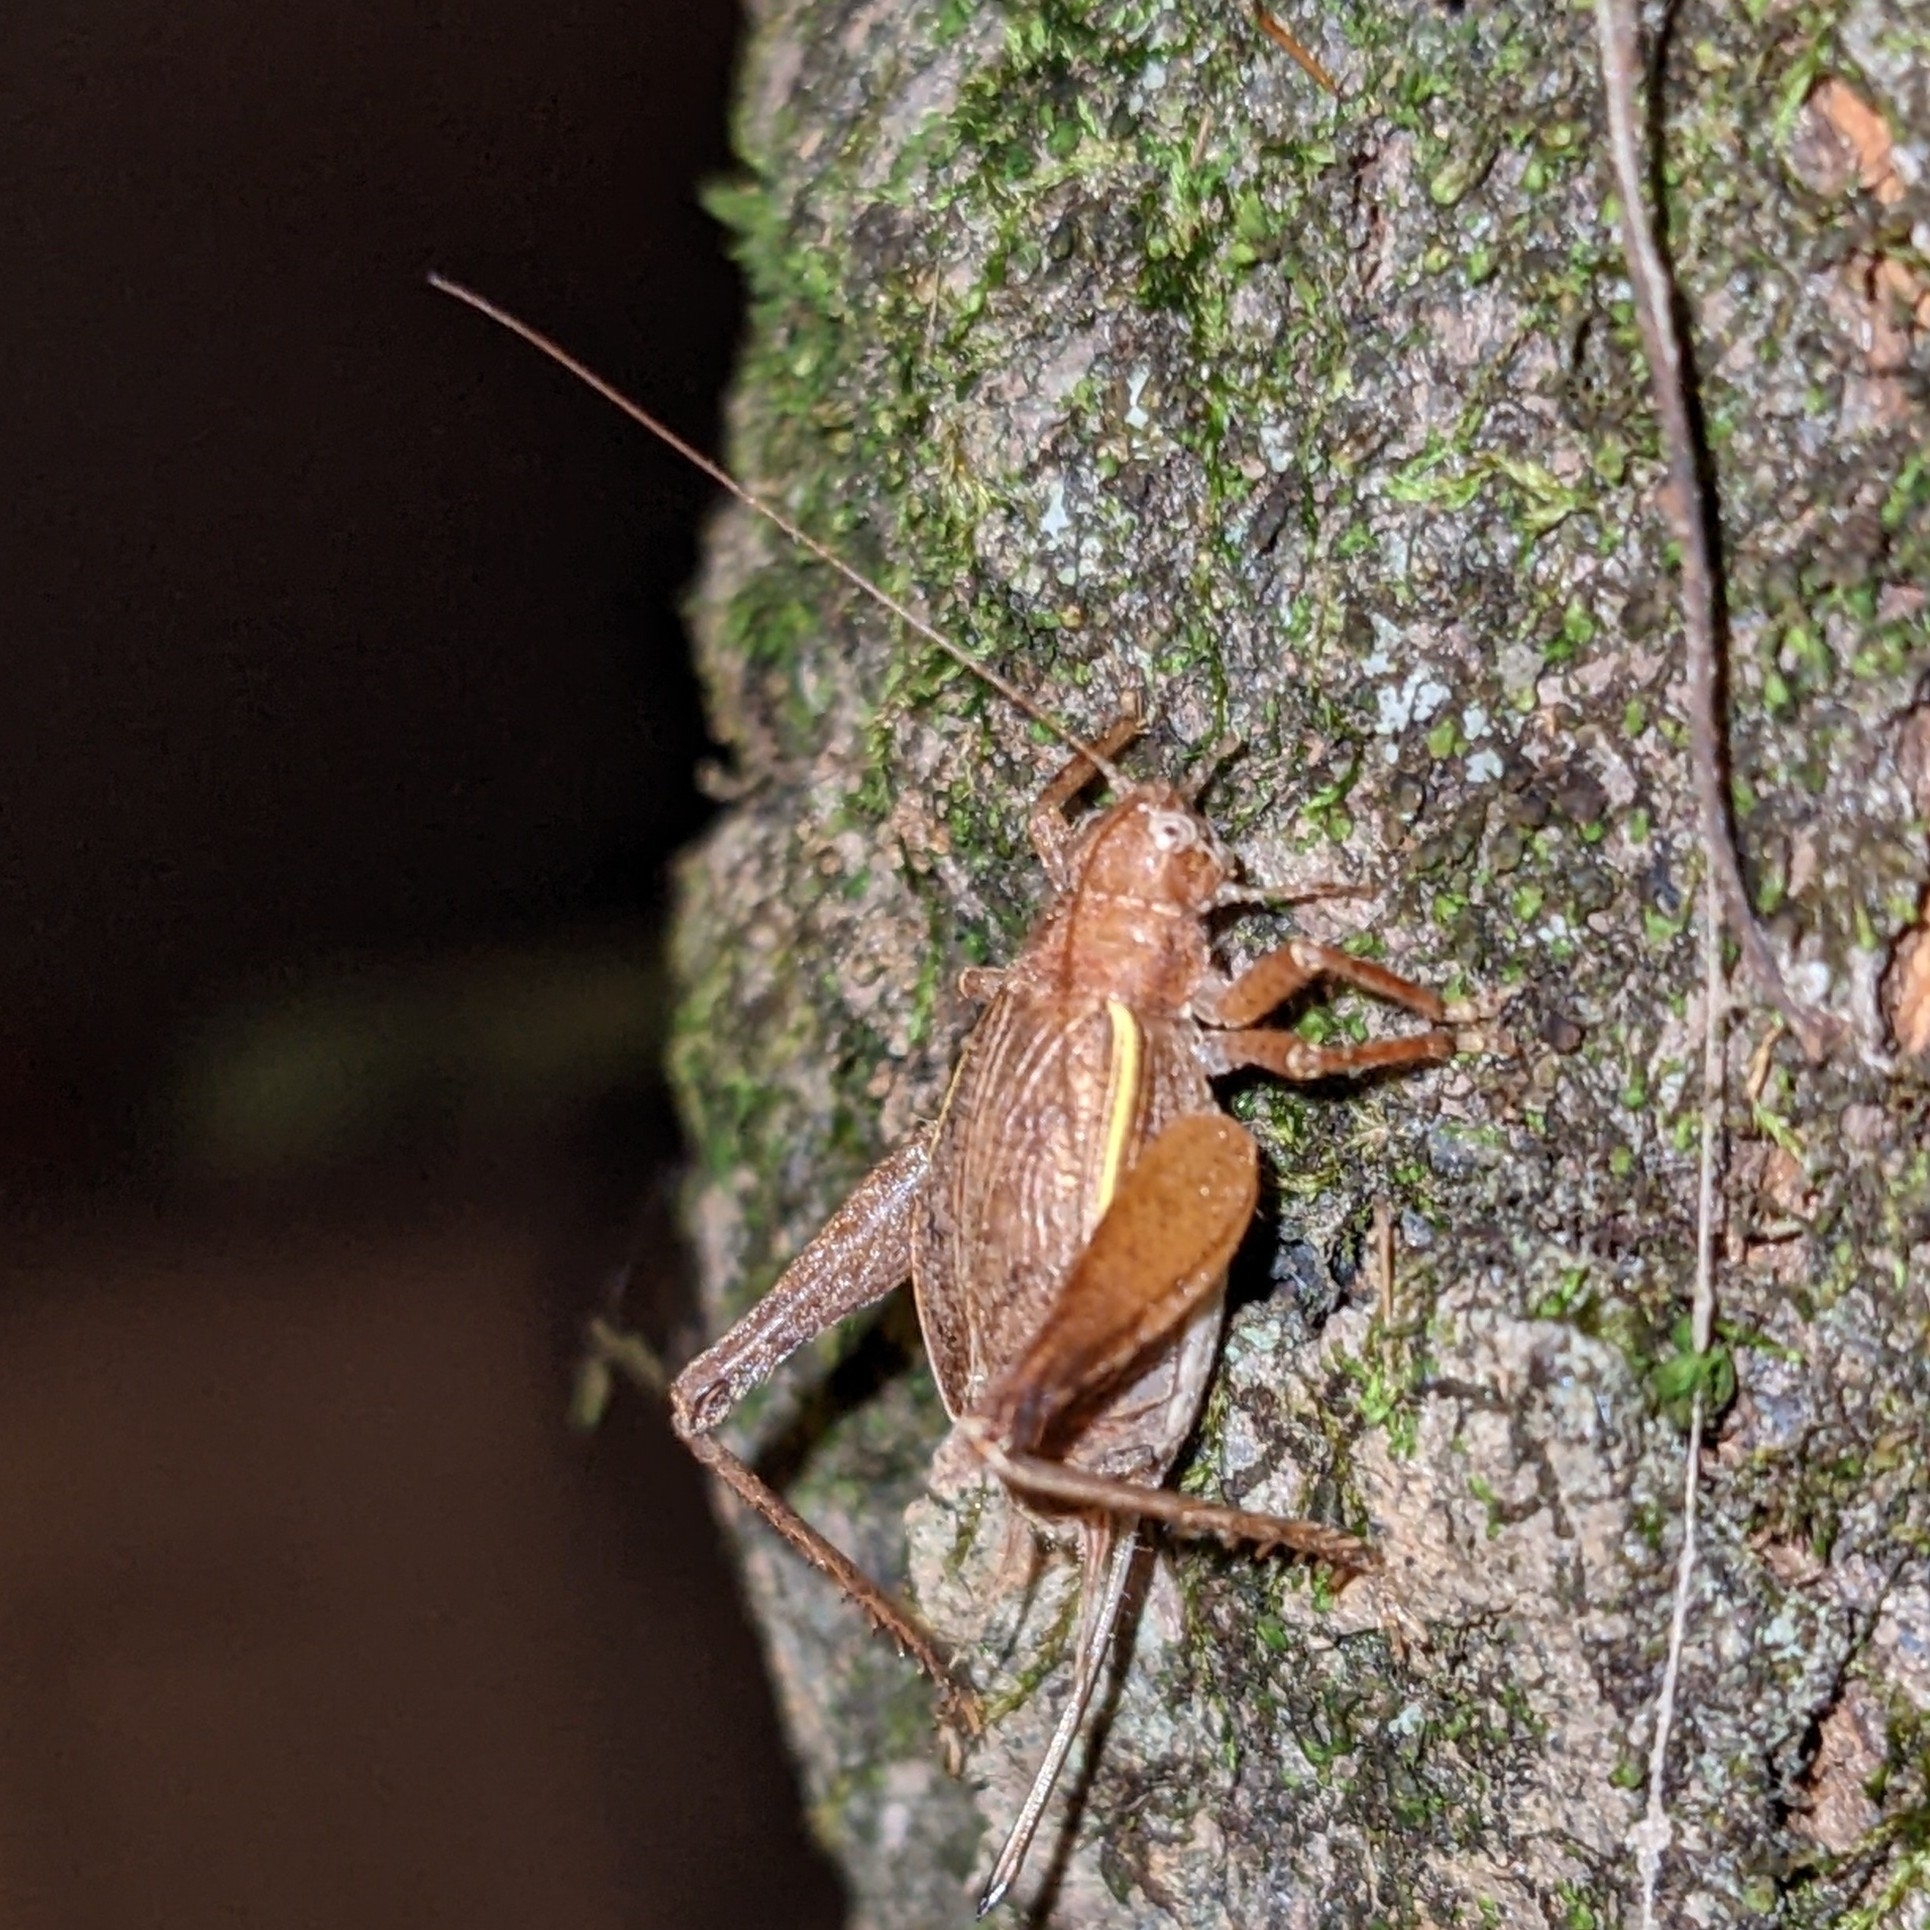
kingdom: Animalia
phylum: Arthropoda
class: Insecta
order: Orthoptera
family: Gryllidae
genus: Hapithus
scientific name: Hapithus agitator
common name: Restless bush cricket
